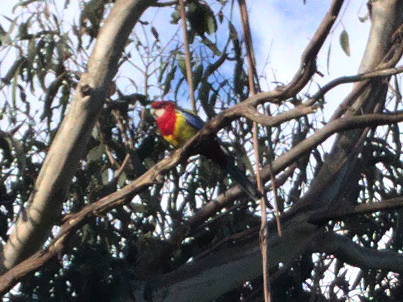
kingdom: Animalia
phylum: Chordata
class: Aves
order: Psittaciformes
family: Psittacidae
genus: Platycercus
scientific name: Platycercus eximius
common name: Eastern rosella
